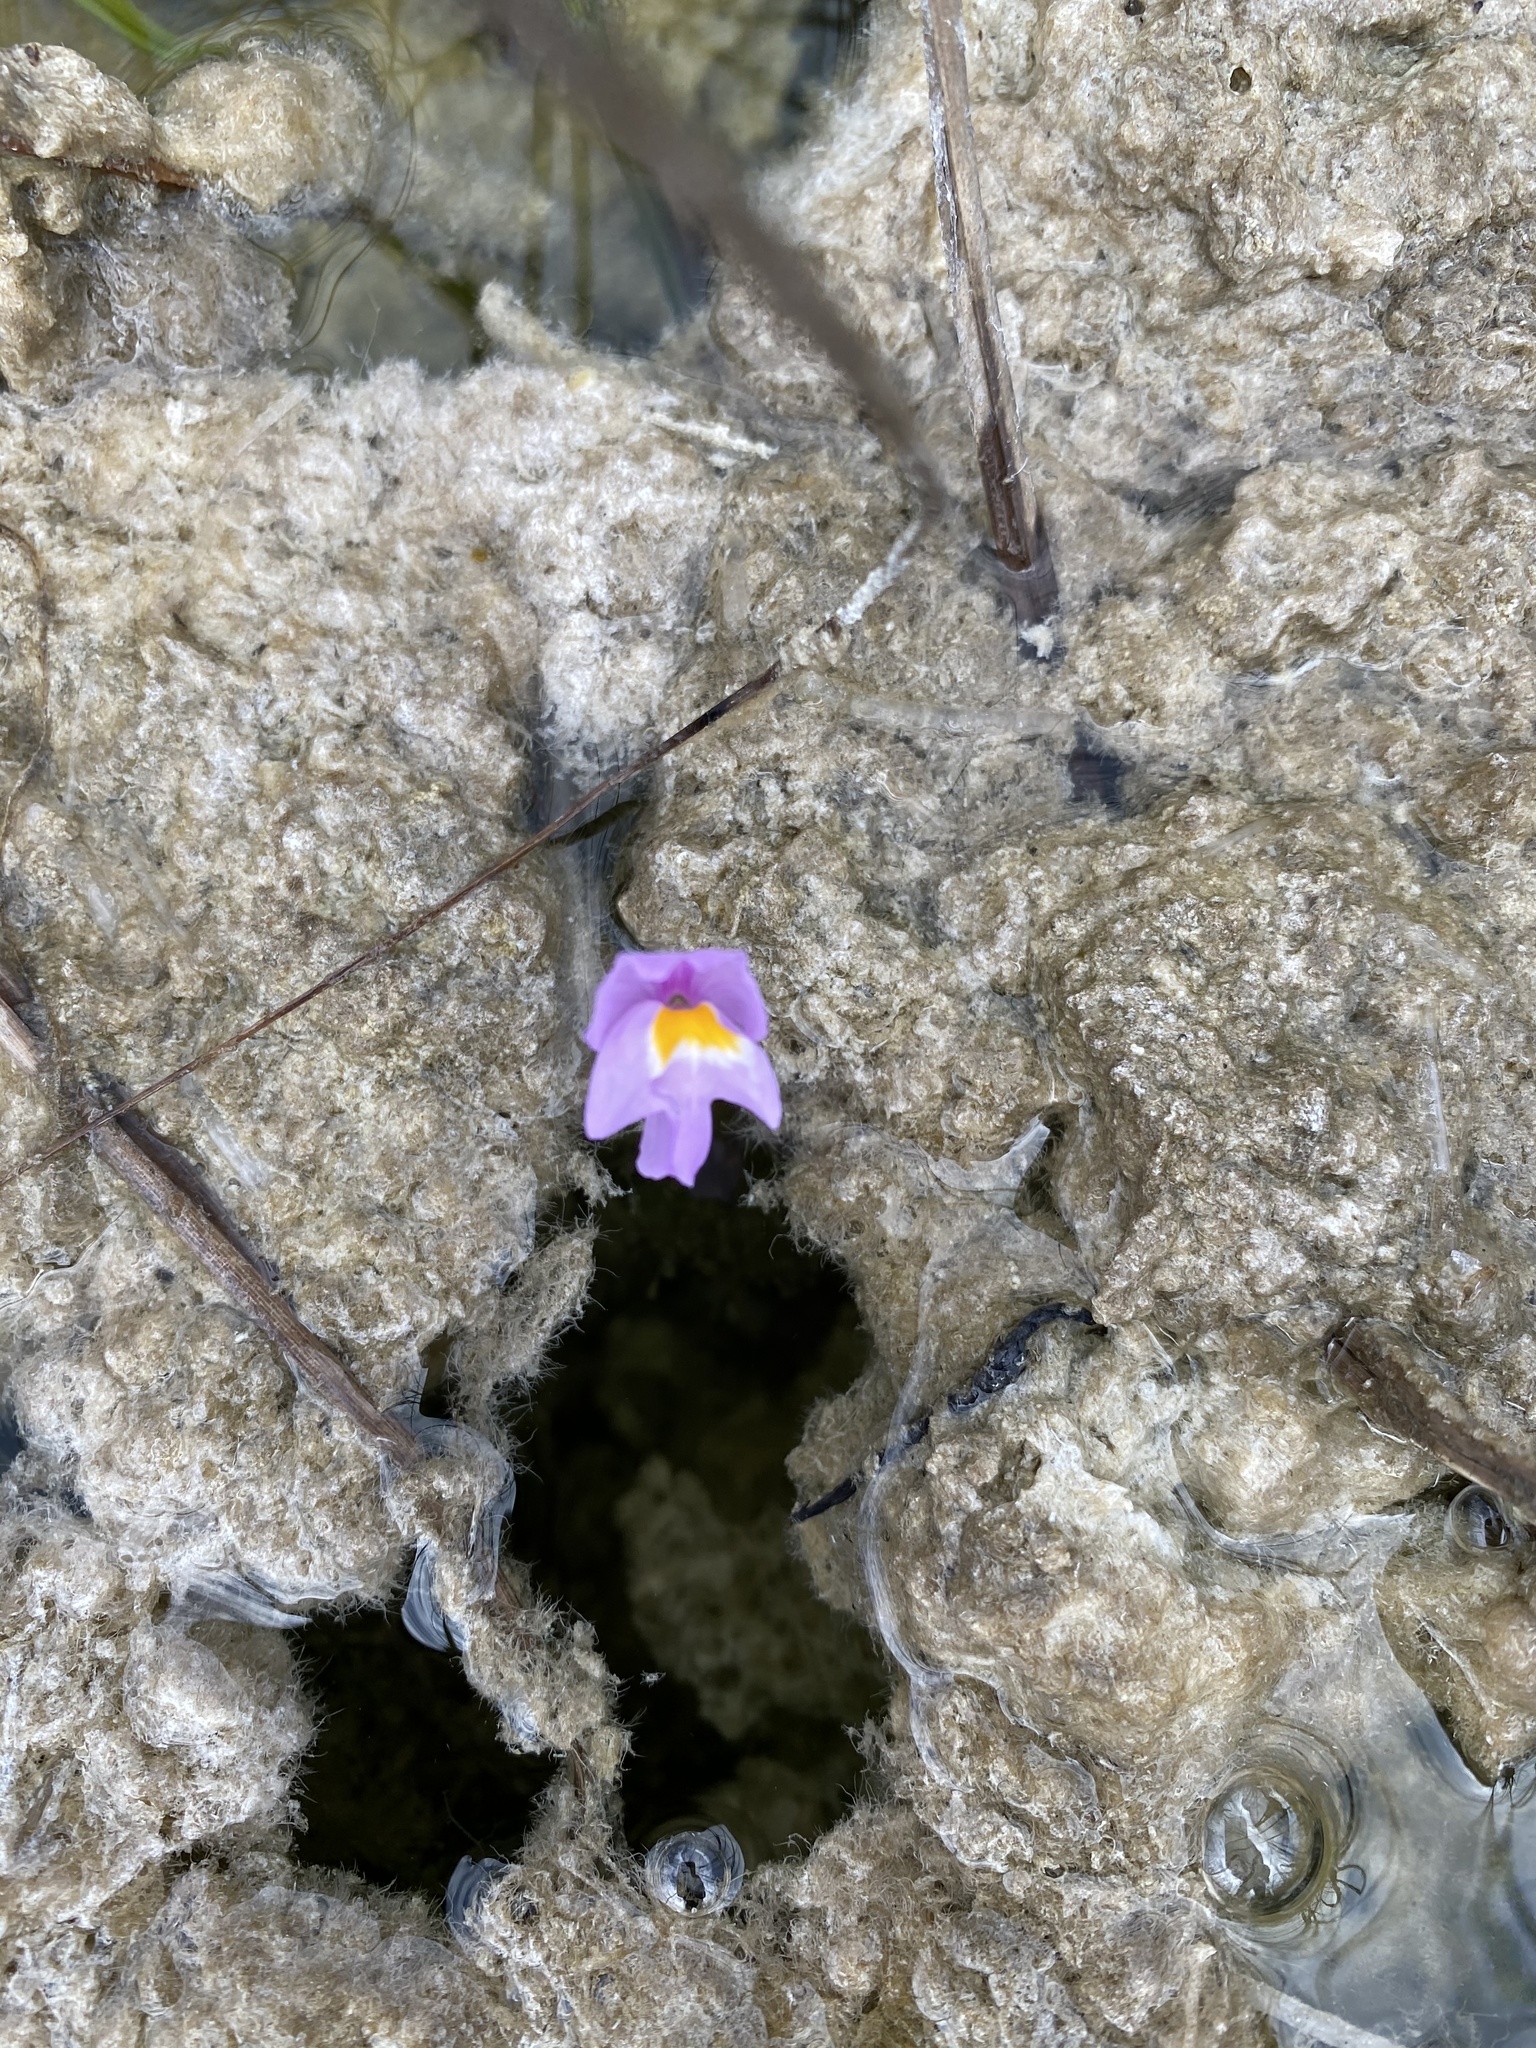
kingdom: Plantae
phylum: Tracheophyta
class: Magnoliopsida
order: Lamiales
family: Lentibulariaceae
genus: Utricularia
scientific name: Utricularia purpurea
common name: Eastern purple bladderwort
